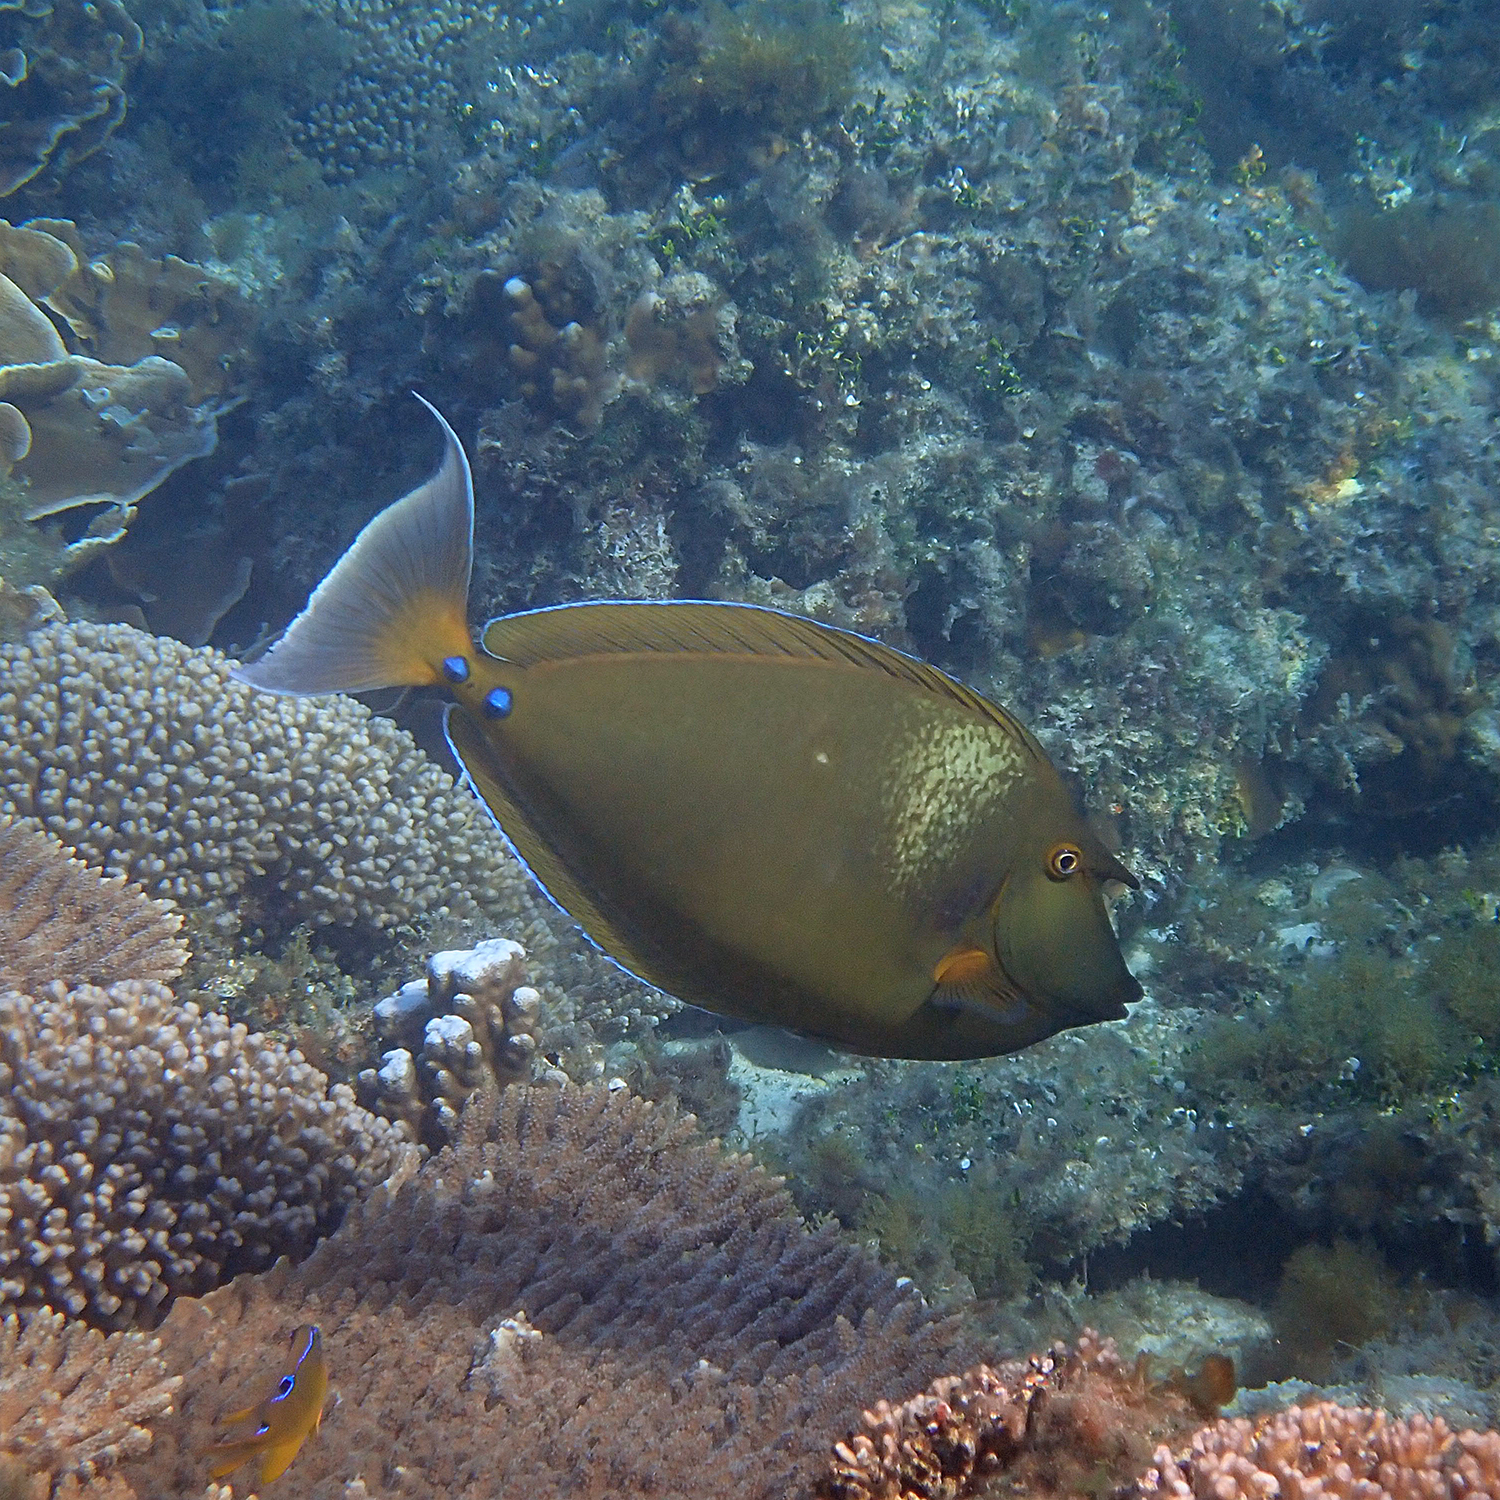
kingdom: Animalia
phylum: Chordata
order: Perciformes
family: Acanthuridae
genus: Naso
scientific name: Naso unicornis
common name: Bluespine unicornfish
